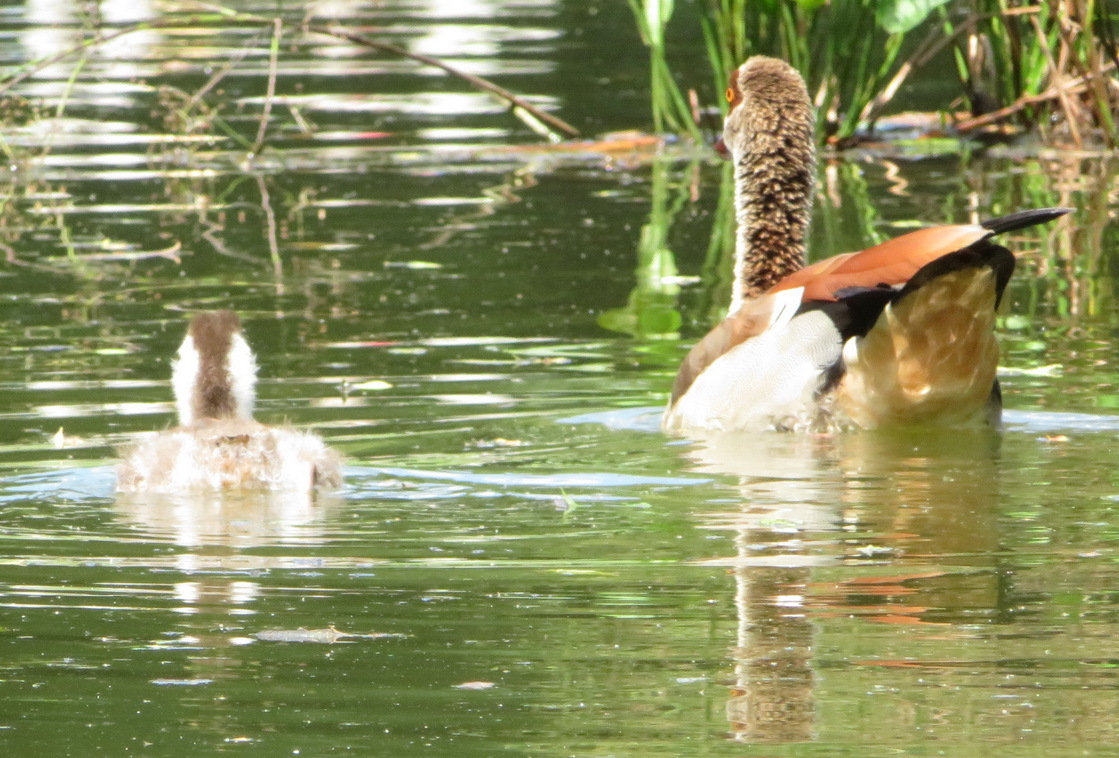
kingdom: Animalia
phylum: Chordata
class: Aves
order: Anseriformes
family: Anatidae
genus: Alopochen
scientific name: Alopochen aegyptiaca
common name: Egyptian goose
